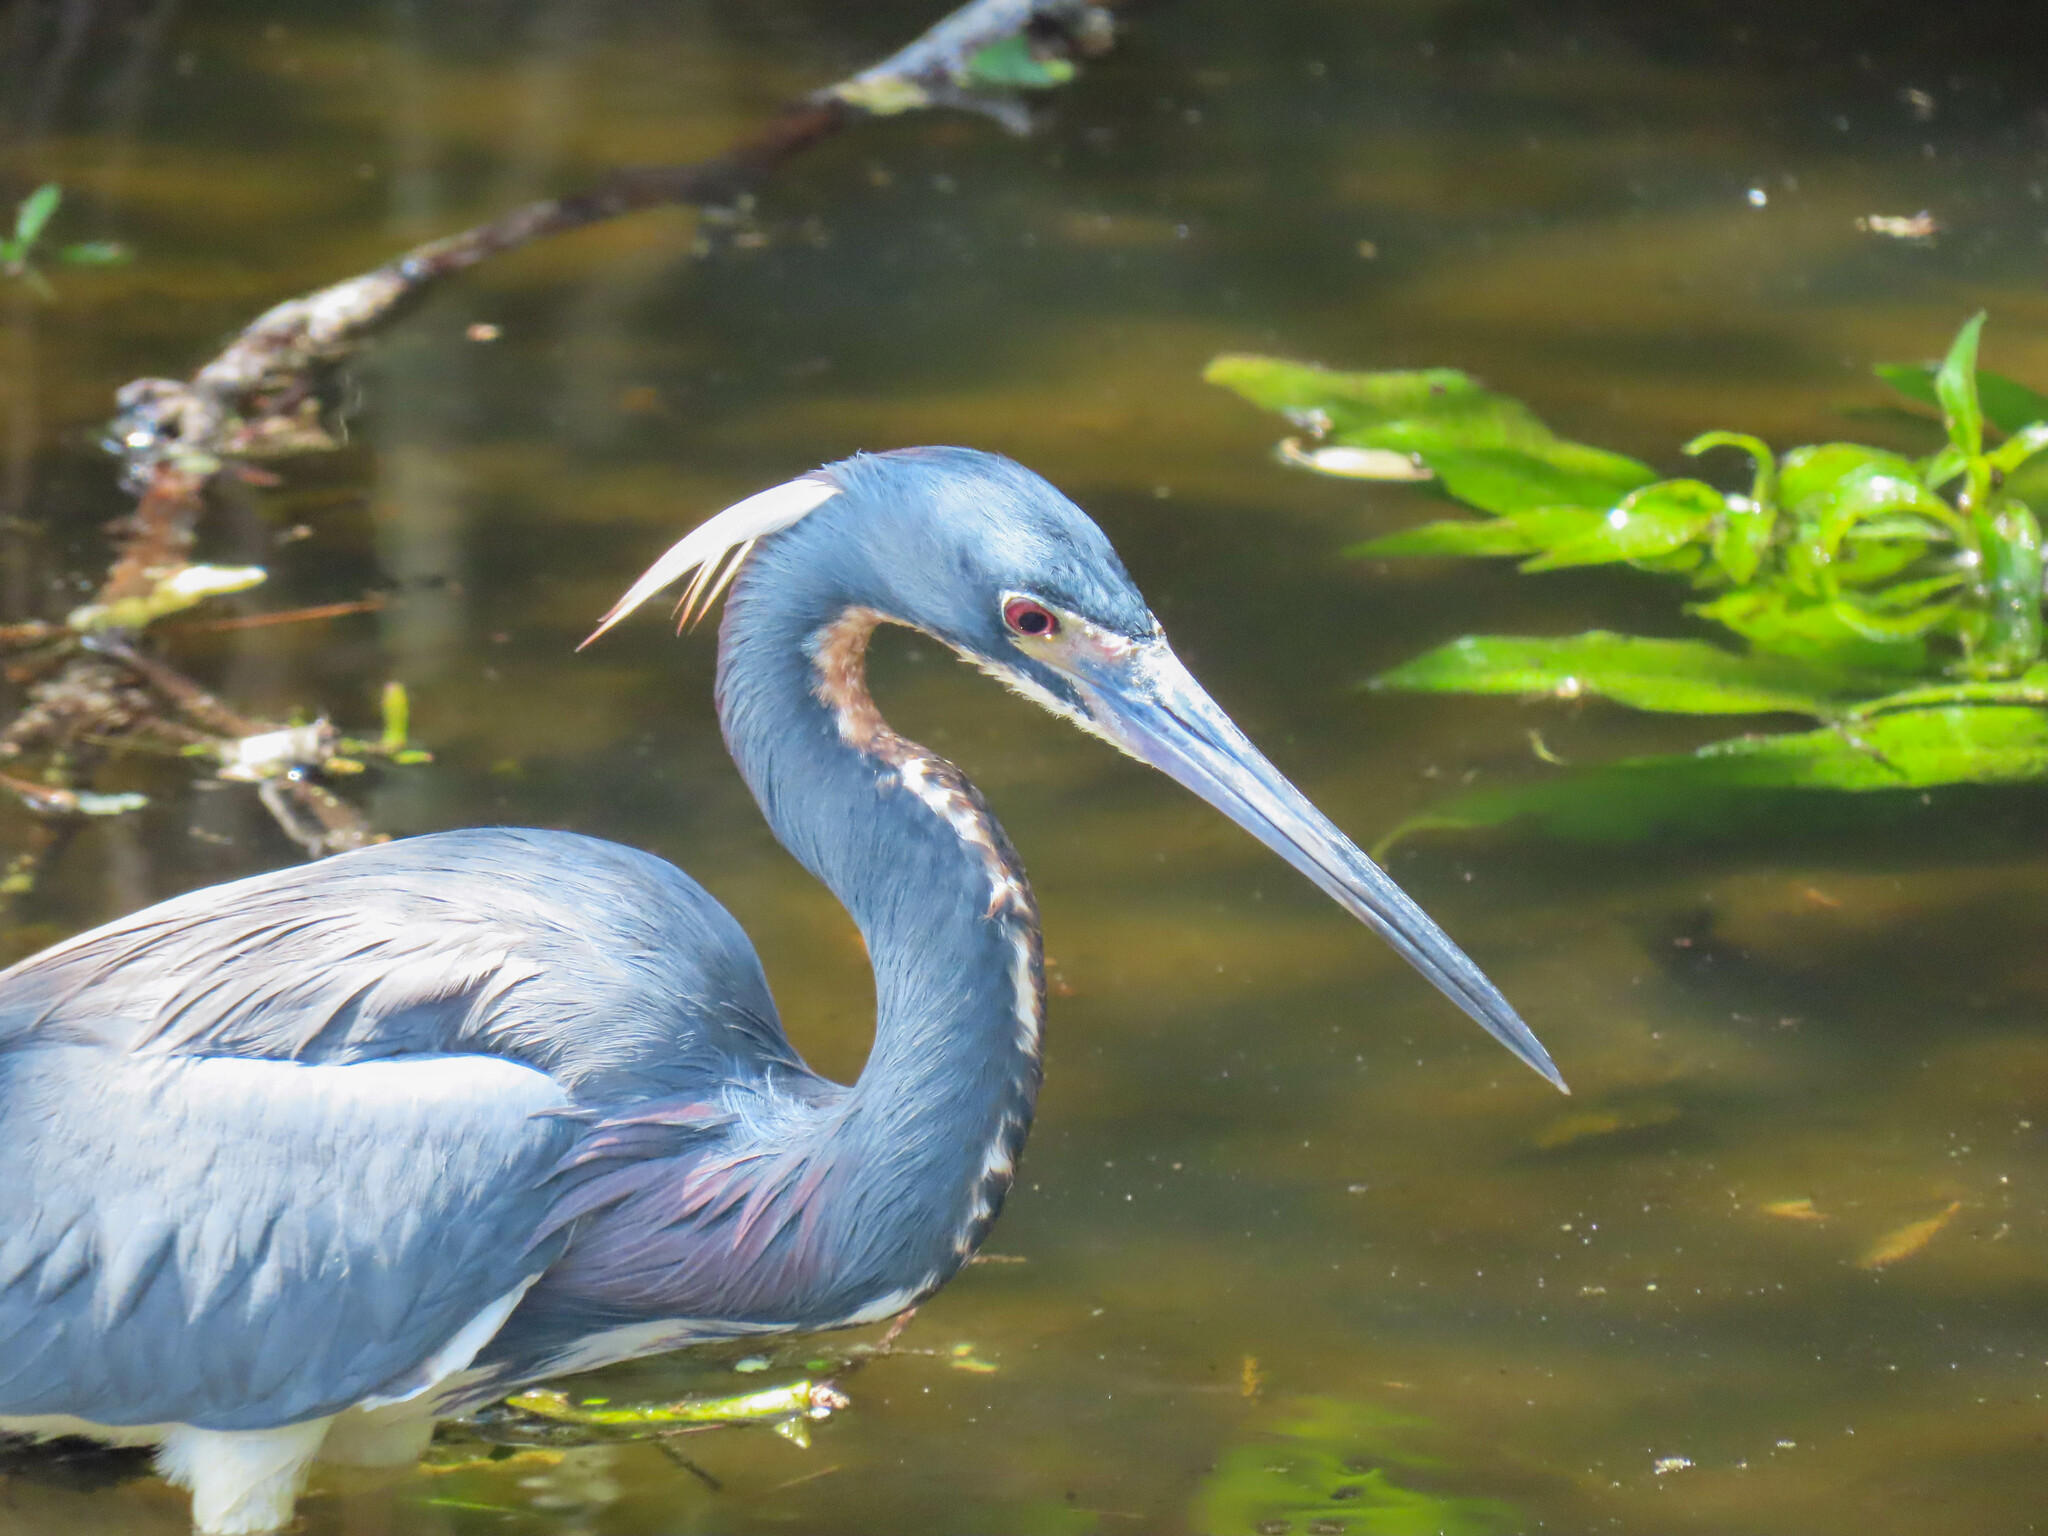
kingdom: Animalia
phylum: Chordata
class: Aves
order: Pelecaniformes
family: Ardeidae
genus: Egretta
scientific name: Egretta tricolor
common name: Tricolored heron
